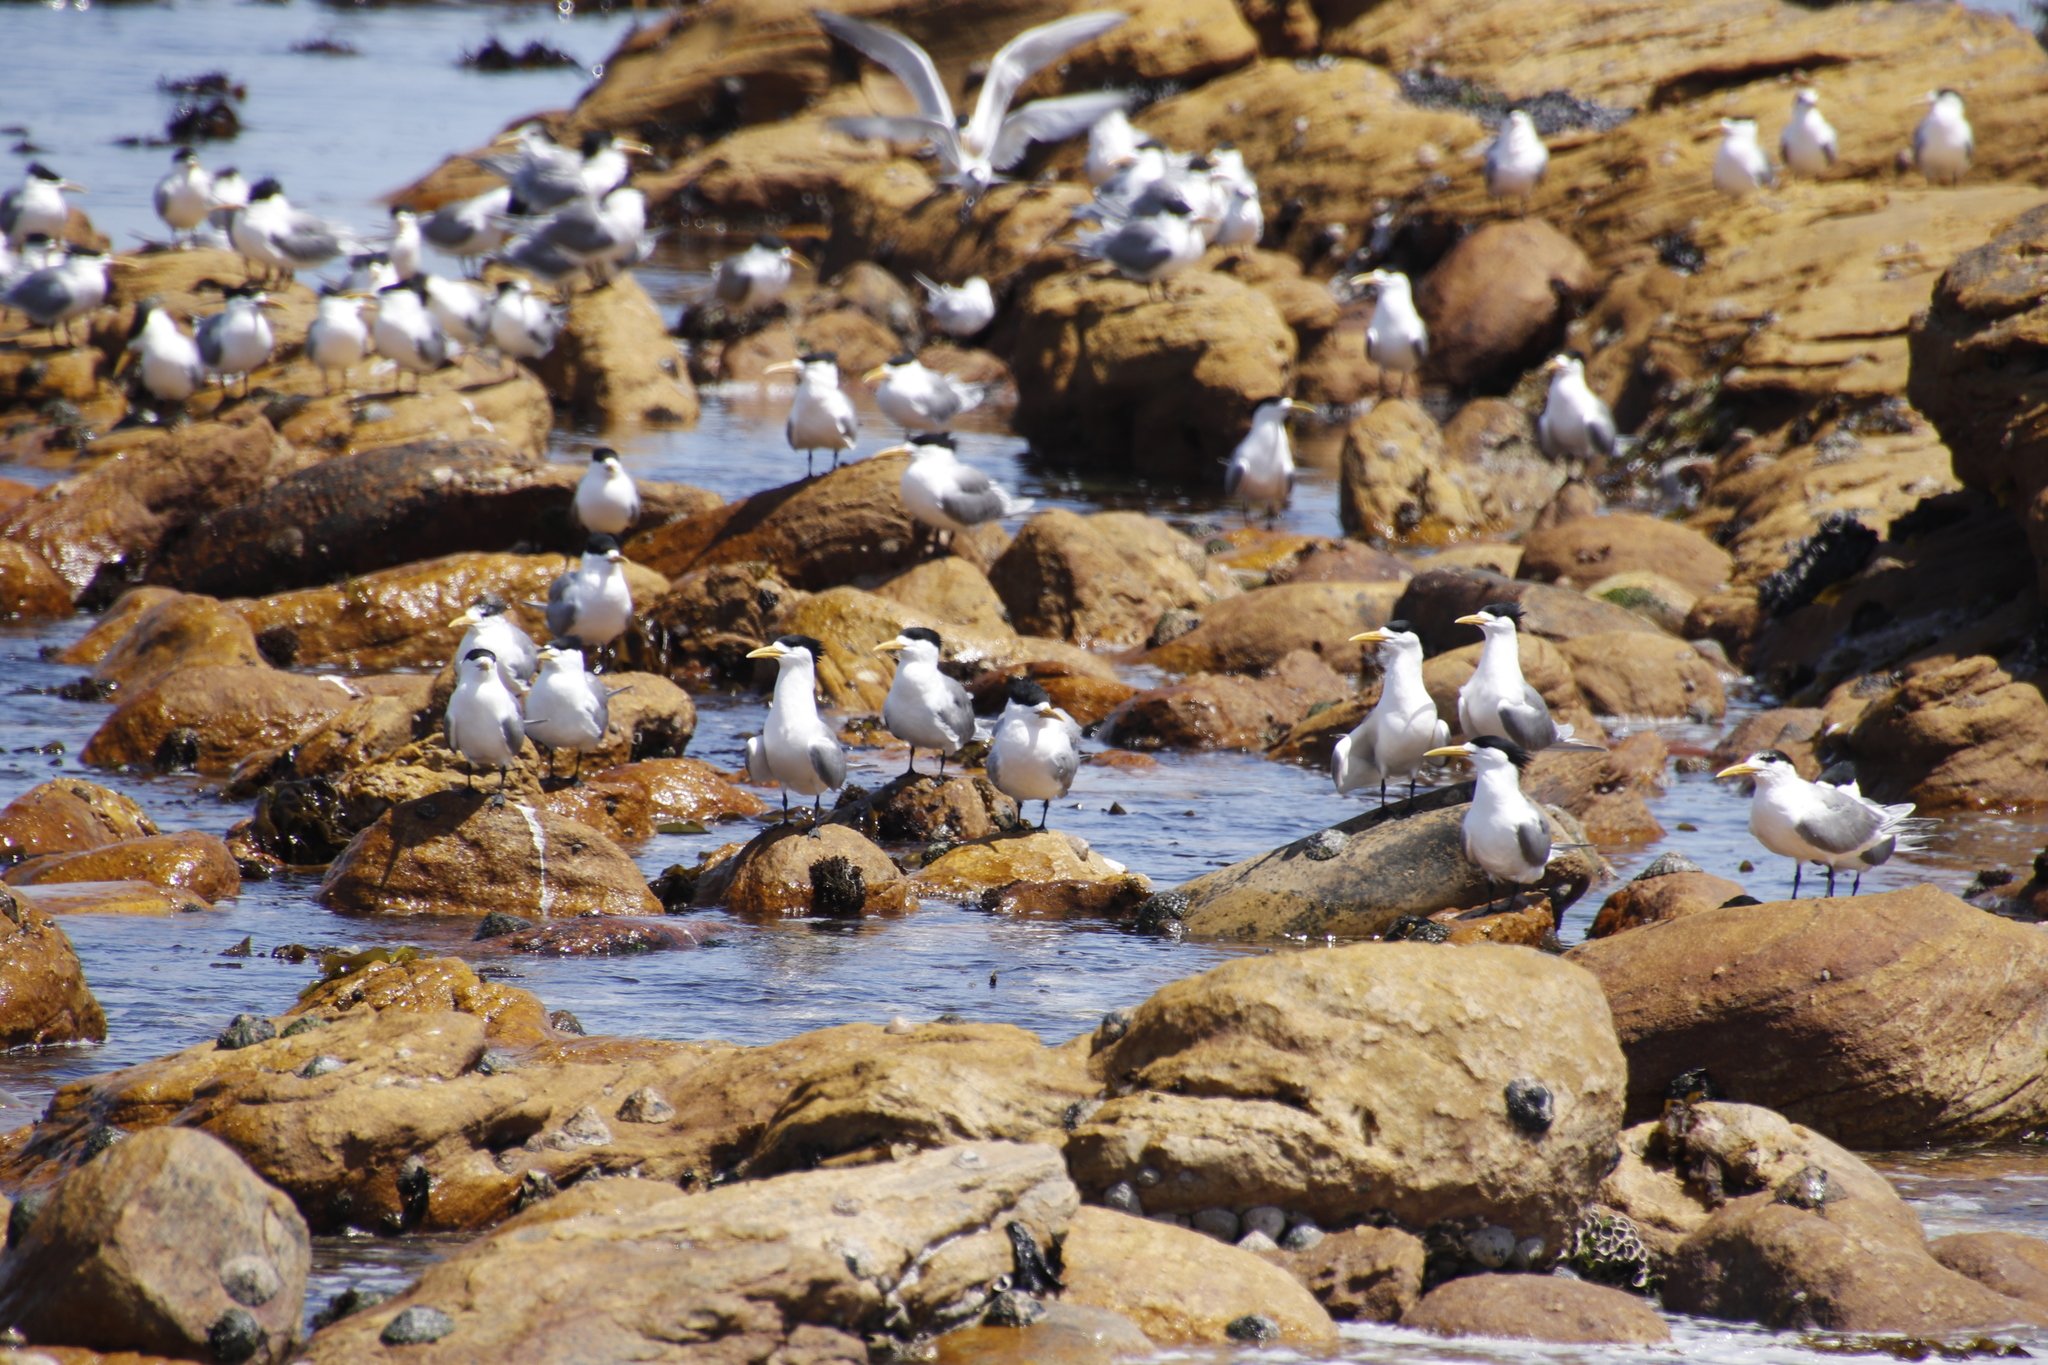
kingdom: Animalia
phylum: Chordata
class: Aves
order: Charadriiformes
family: Laridae
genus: Thalasseus
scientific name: Thalasseus bergii
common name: Greater crested tern
